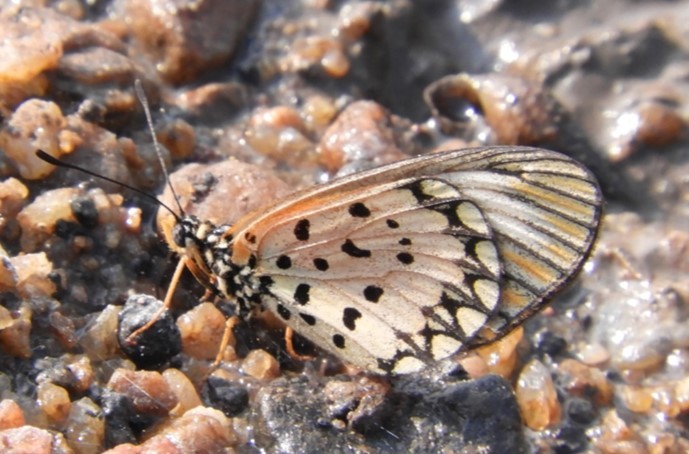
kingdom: Animalia
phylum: Arthropoda
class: Insecta
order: Lepidoptera
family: Nymphalidae
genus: Acraea
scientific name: Acraea Telchinia serena
